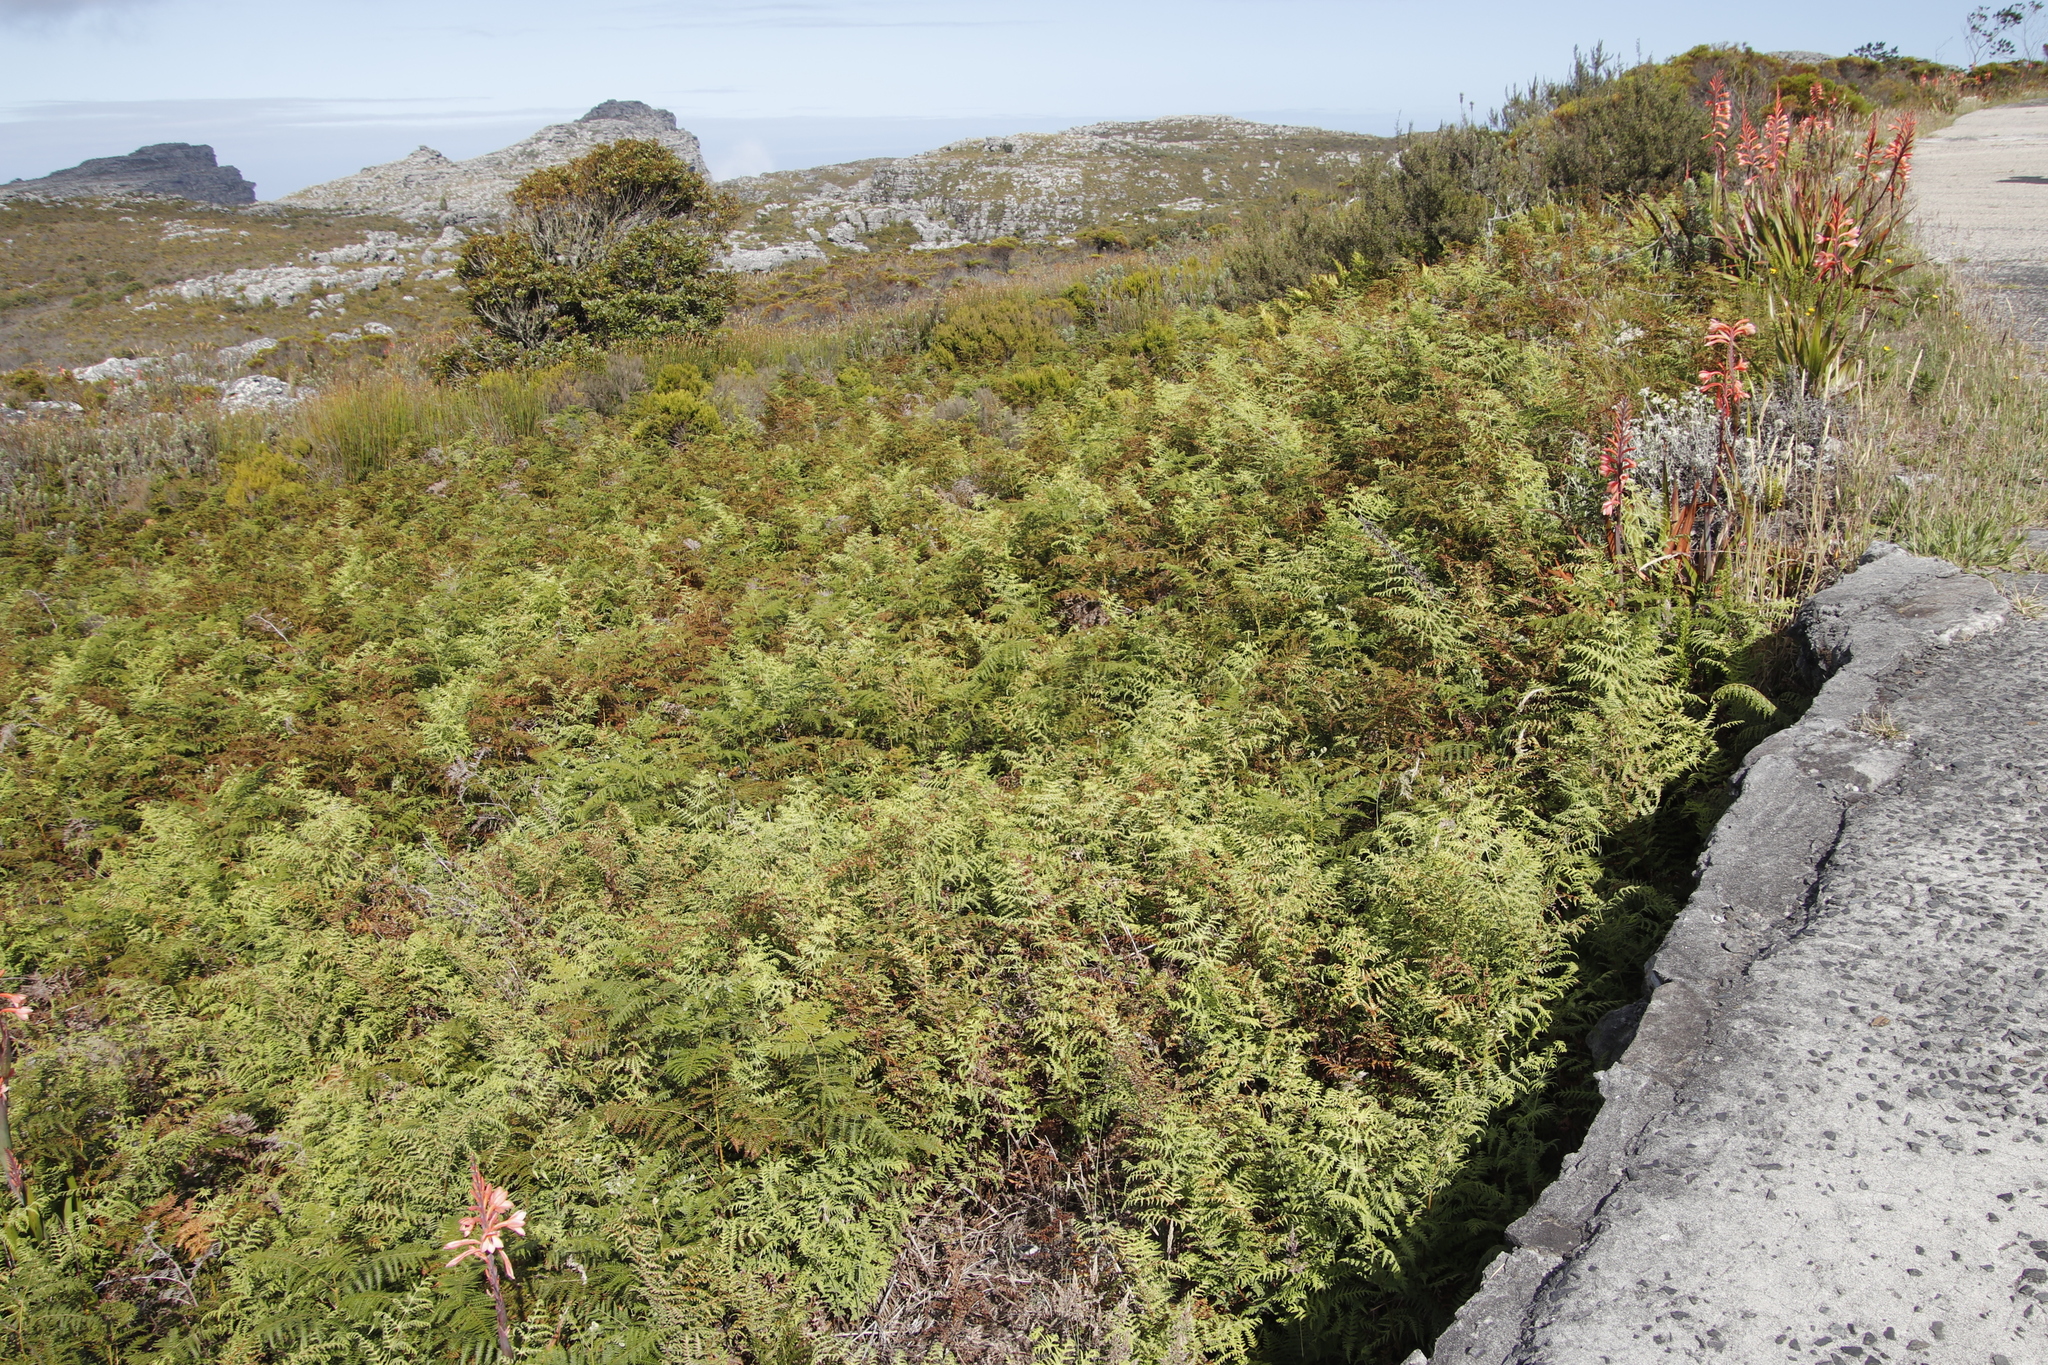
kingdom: Plantae
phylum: Tracheophyta
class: Polypodiopsida
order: Polypodiales
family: Dennstaedtiaceae
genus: Histiopteris
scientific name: Histiopteris incisa
